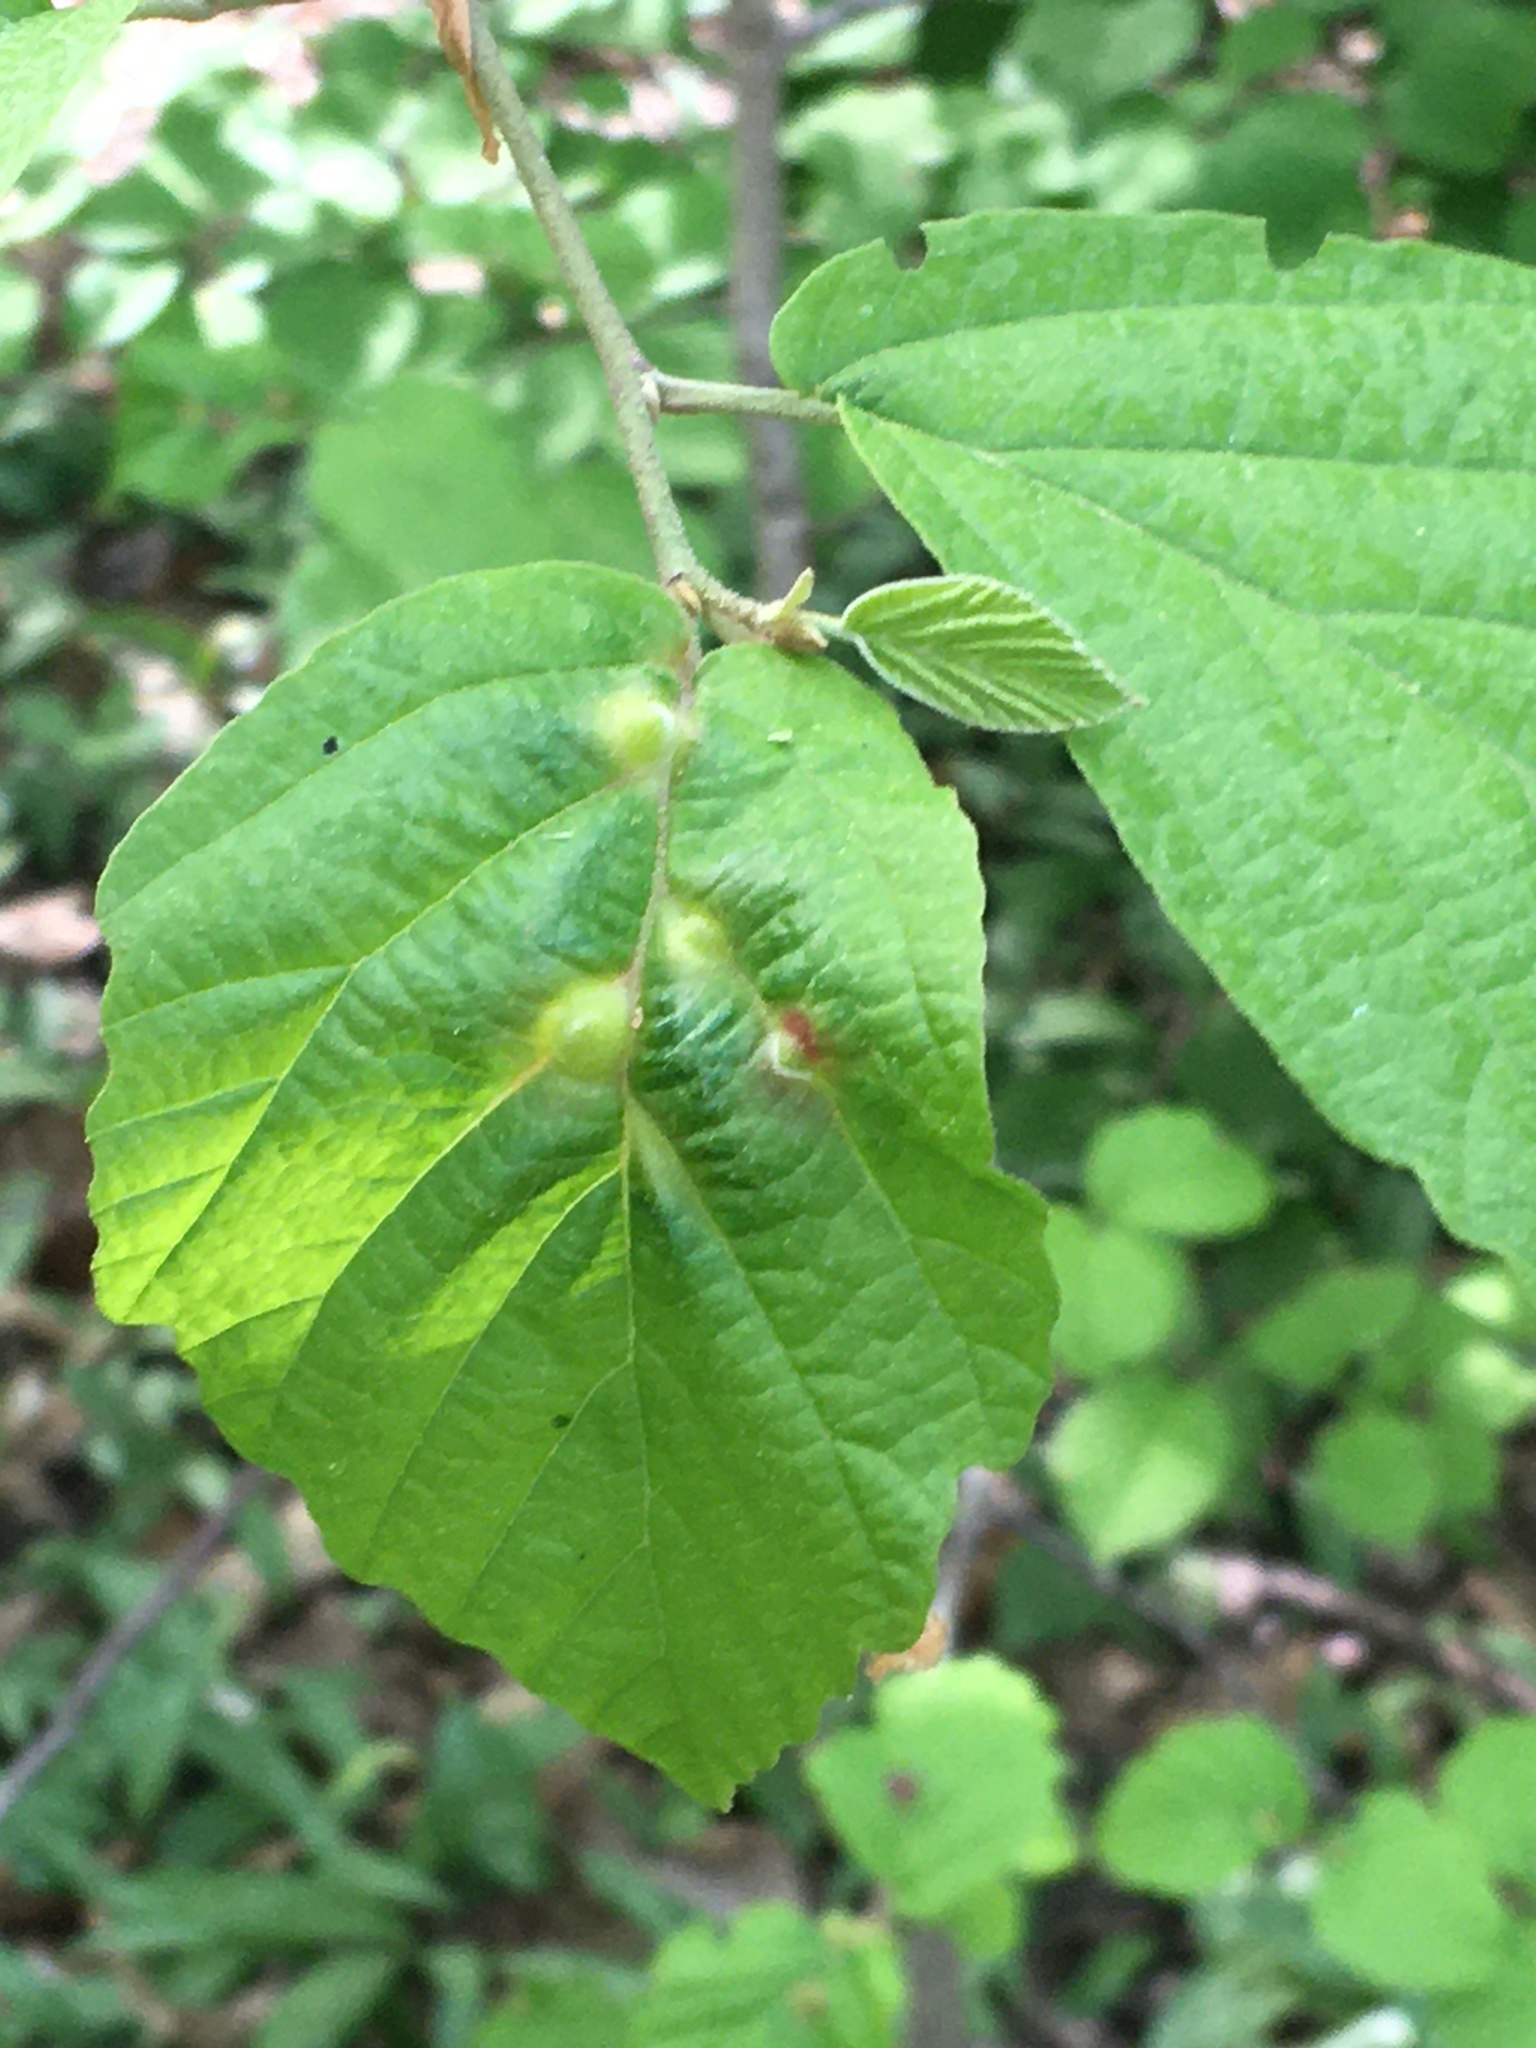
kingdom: Plantae
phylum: Tracheophyta
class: Magnoliopsida
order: Saxifragales
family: Hamamelidaceae
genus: Hamamelis
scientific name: Hamamelis virginiana
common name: Witch-hazel
